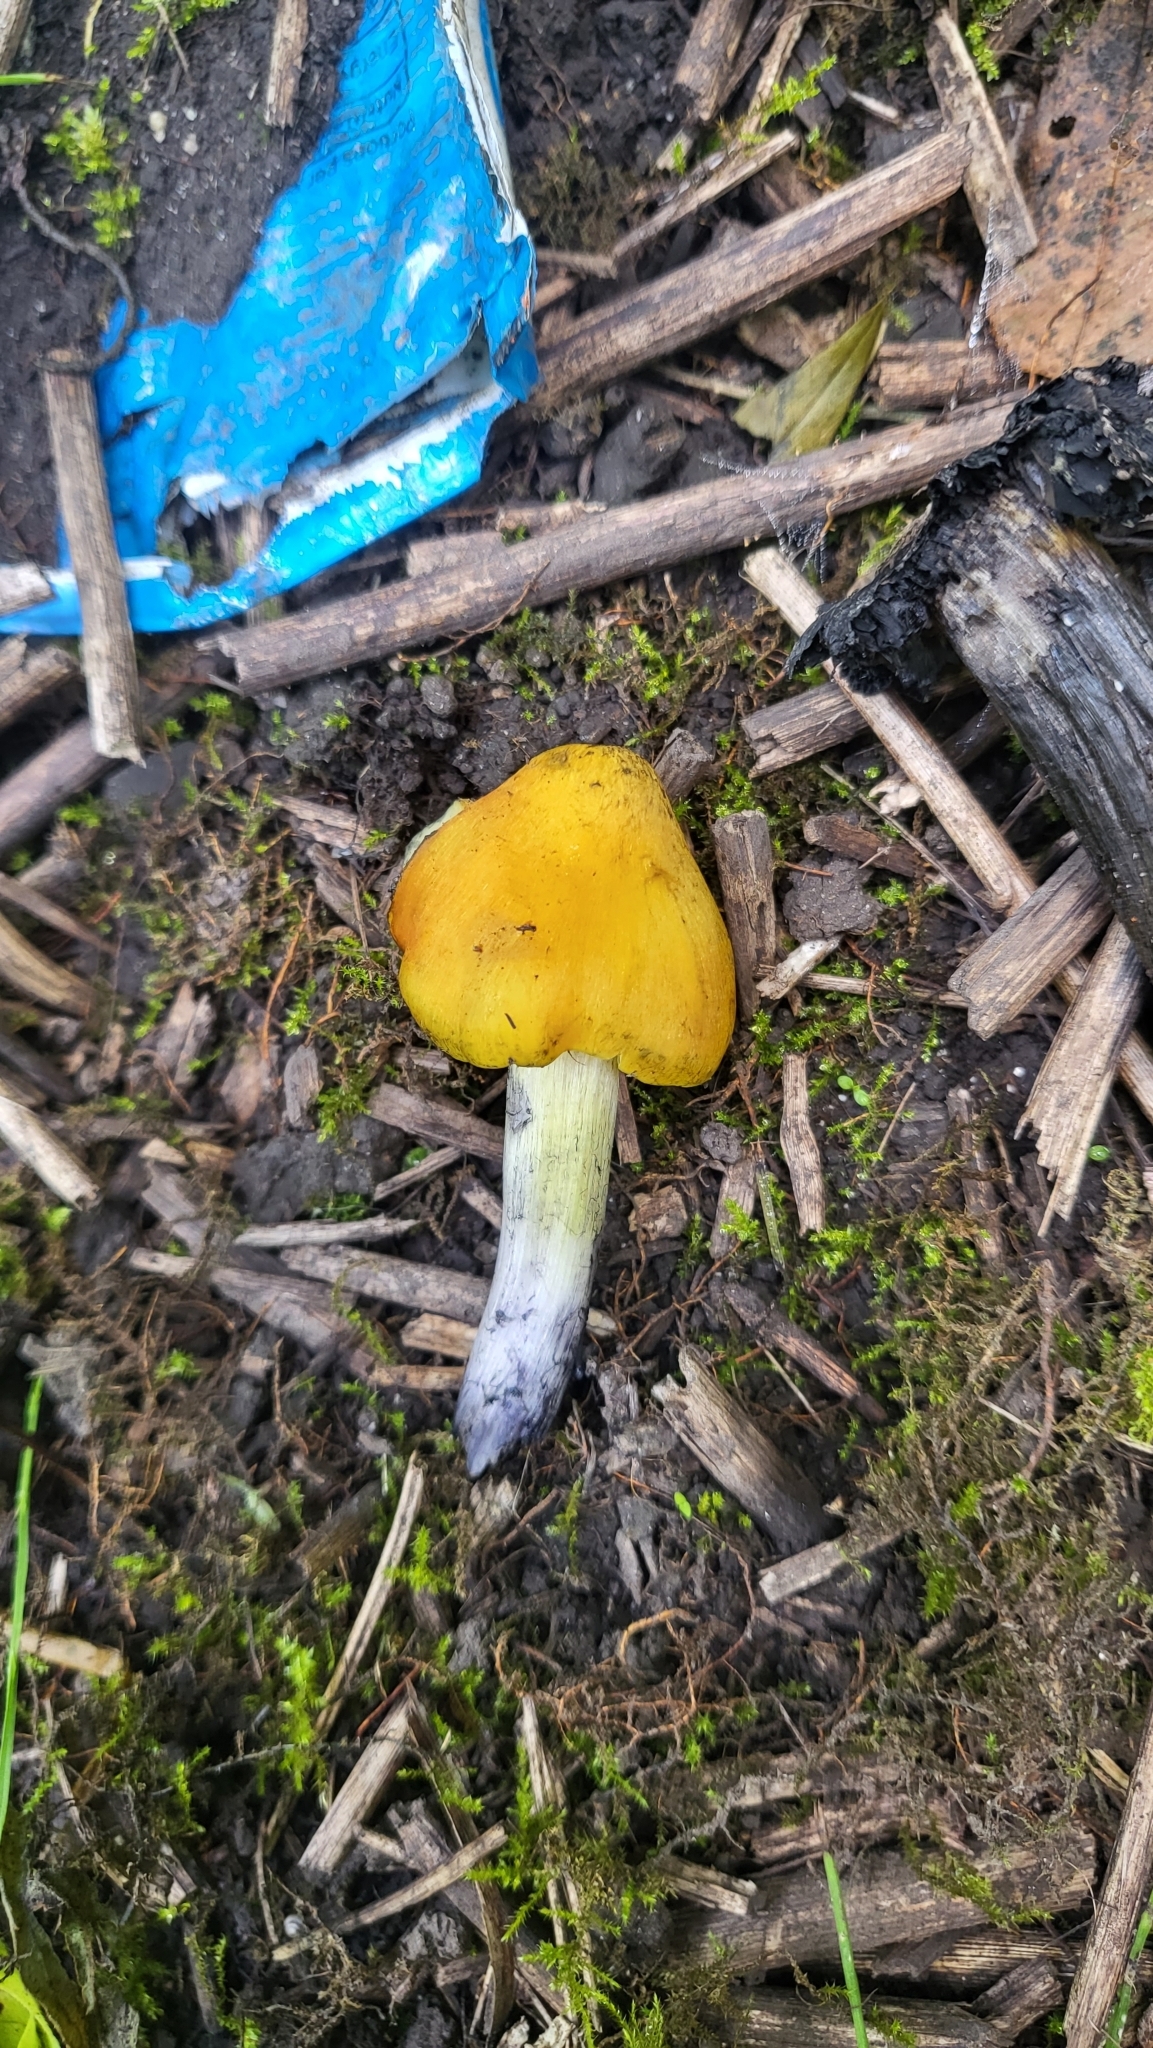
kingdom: Fungi
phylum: Basidiomycota
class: Agaricomycetes
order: Agaricales
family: Hygrophoraceae
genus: Hygrocybe
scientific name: Hygrocybe conica
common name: Blackening wax-cap
